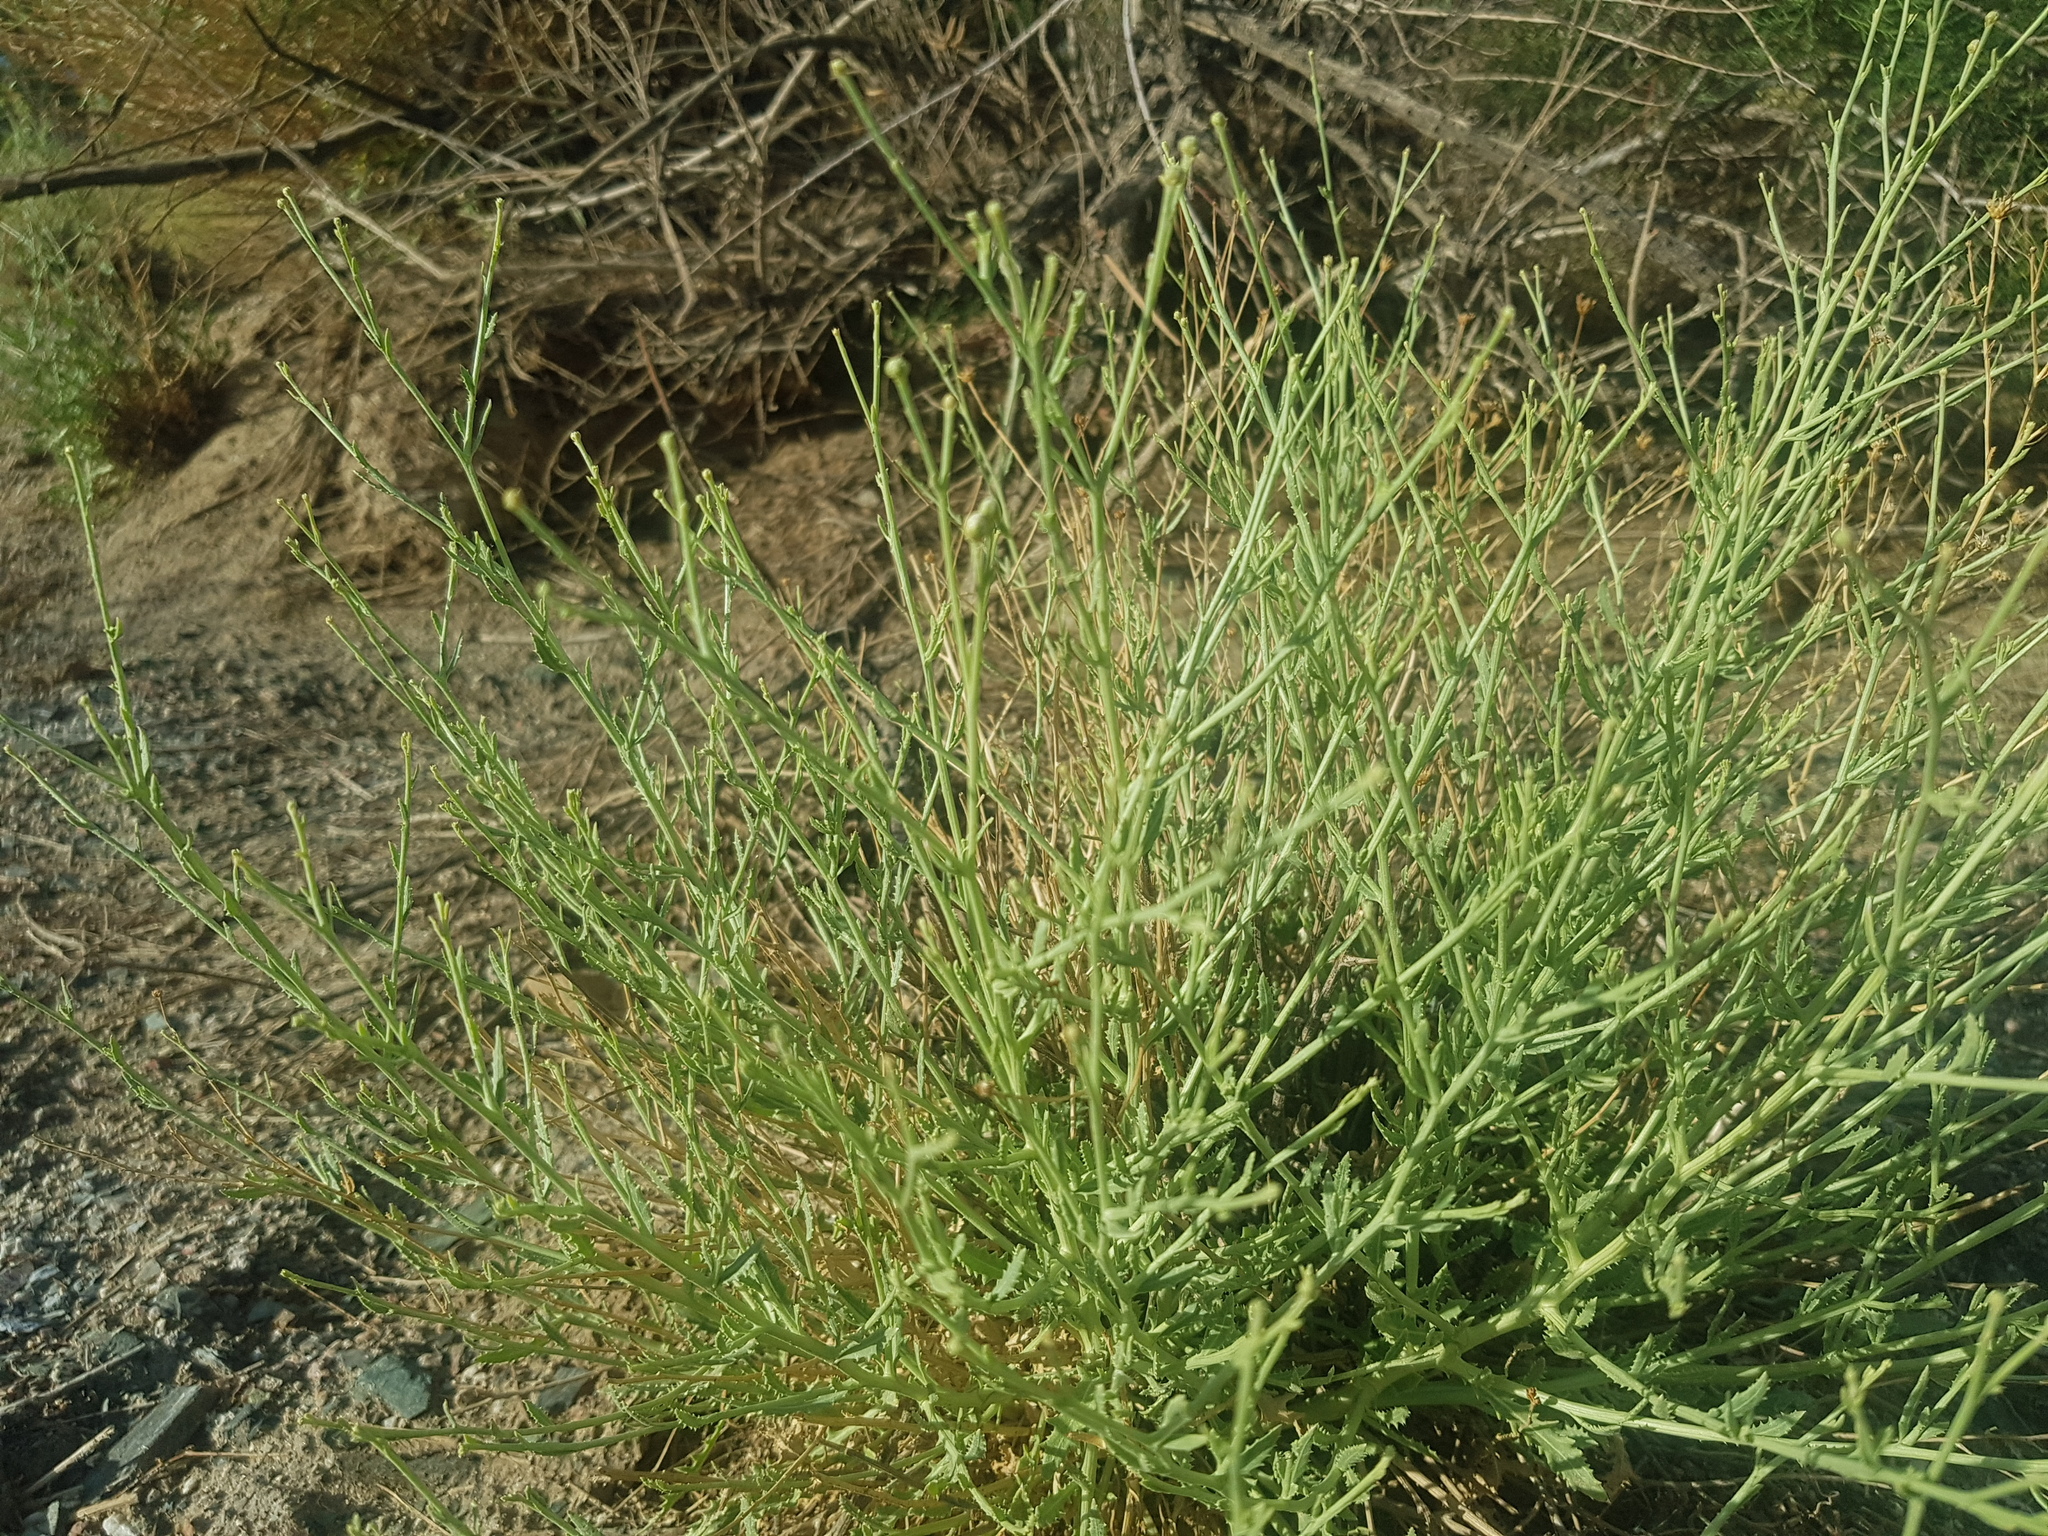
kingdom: Plantae
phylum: Tracheophyta
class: Magnoliopsida
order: Asterales
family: Asteraceae
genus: Asterothamnus
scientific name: Asterothamnus centraliasiaticus
